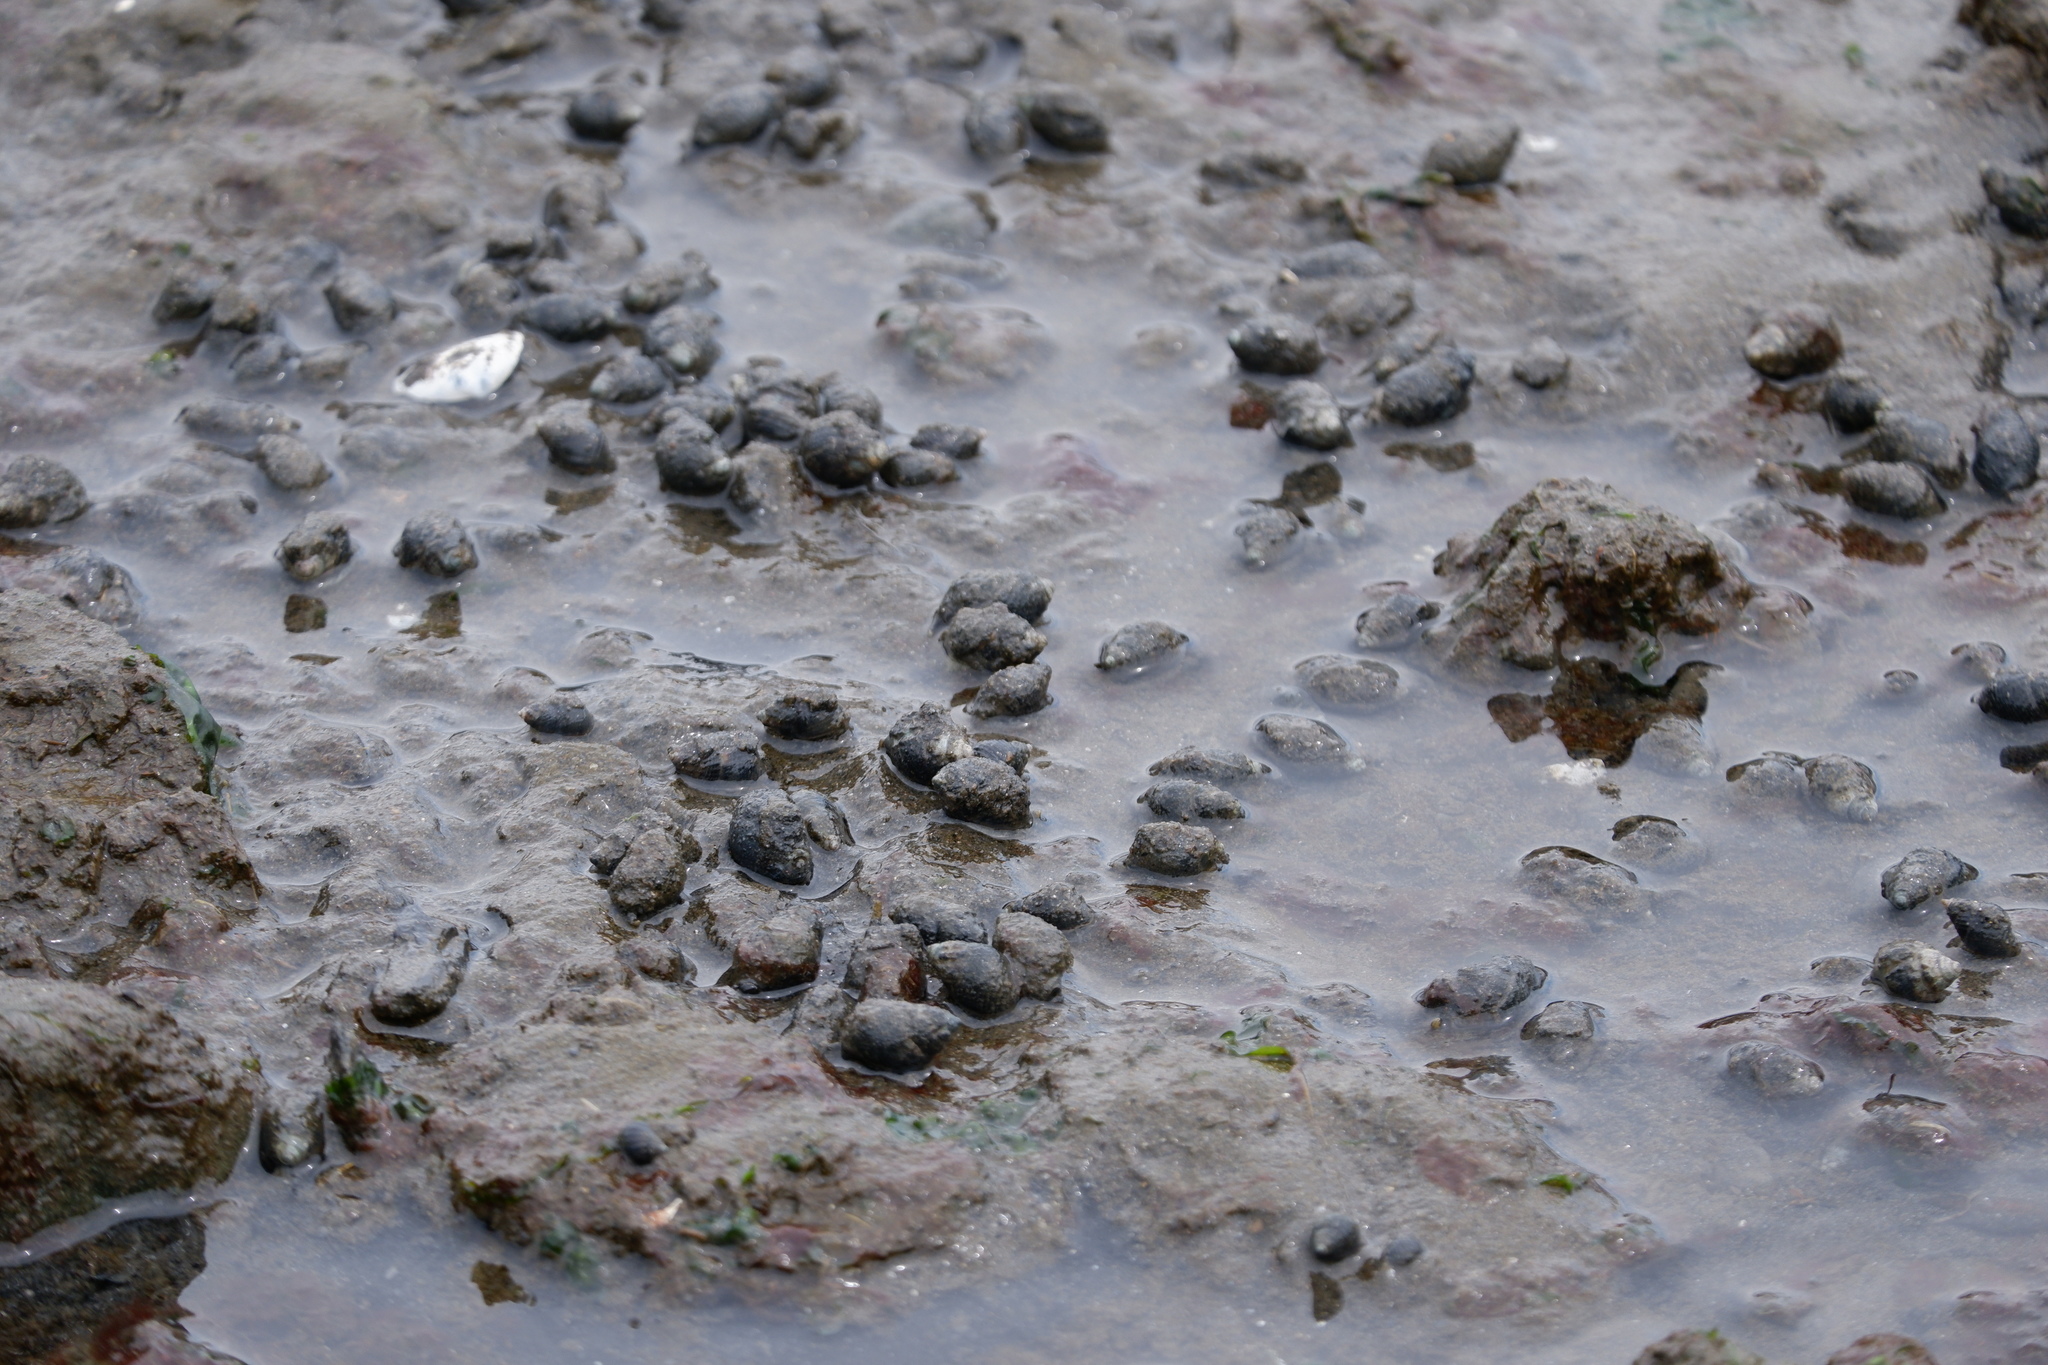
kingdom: Animalia
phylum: Mollusca
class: Gastropoda
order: Neogastropoda
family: Nassariidae
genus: Ilyanassa
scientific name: Ilyanassa obsoleta
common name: Eastern mudsnail
